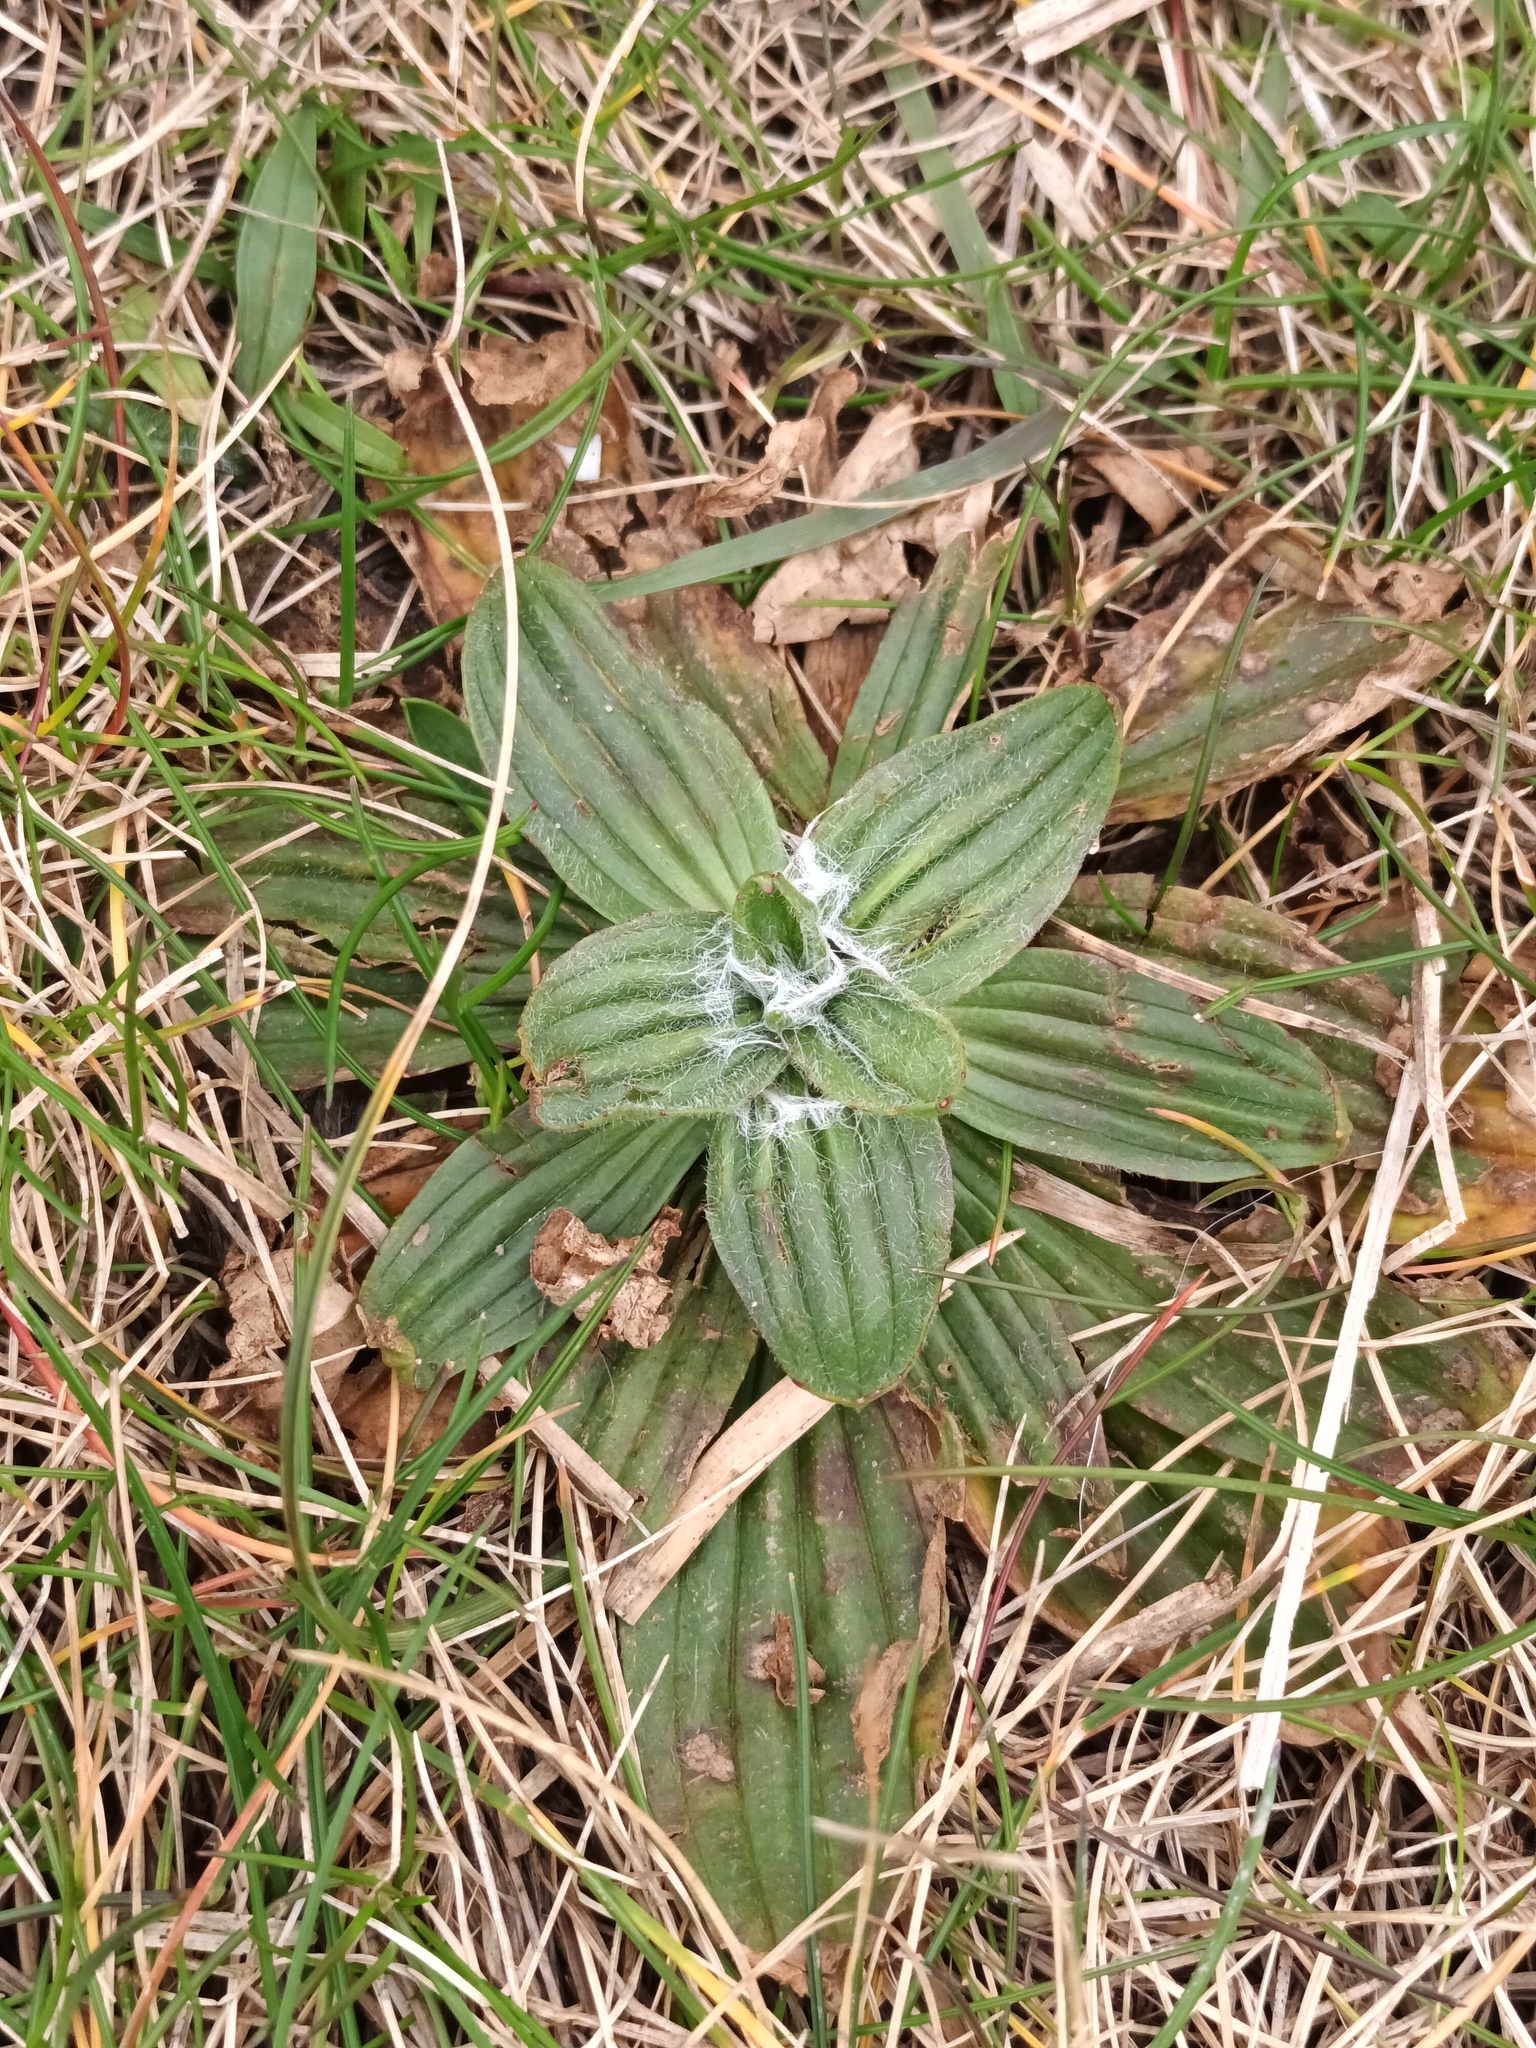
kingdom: Plantae
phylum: Tracheophyta
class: Magnoliopsida
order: Lamiales
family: Plantaginaceae
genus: Plantago
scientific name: Plantago lanceolata
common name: Ribwort plantain
